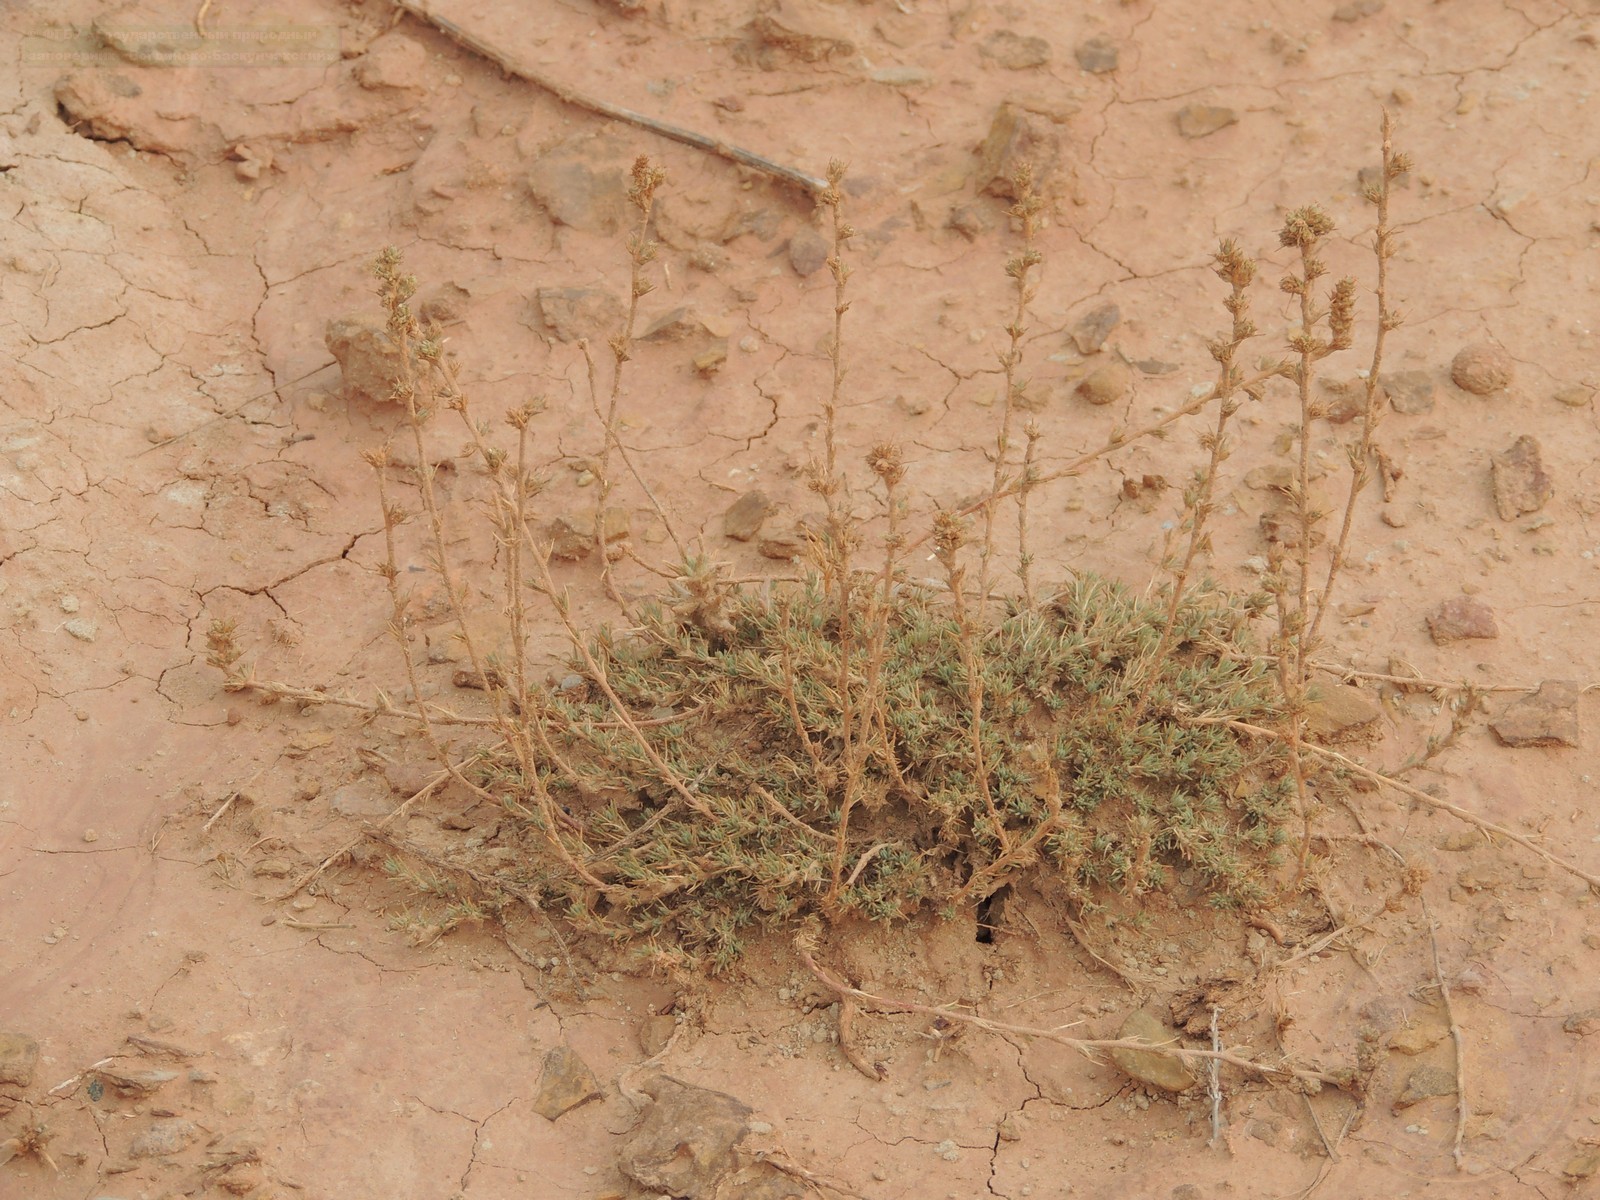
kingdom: Plantae
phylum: Tracheophyta
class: Magnoliopsida
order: Caryophyllales
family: Amaranthaceae
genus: Camphorosma
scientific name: Camphorosma monspeliaca
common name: Camphorfume
